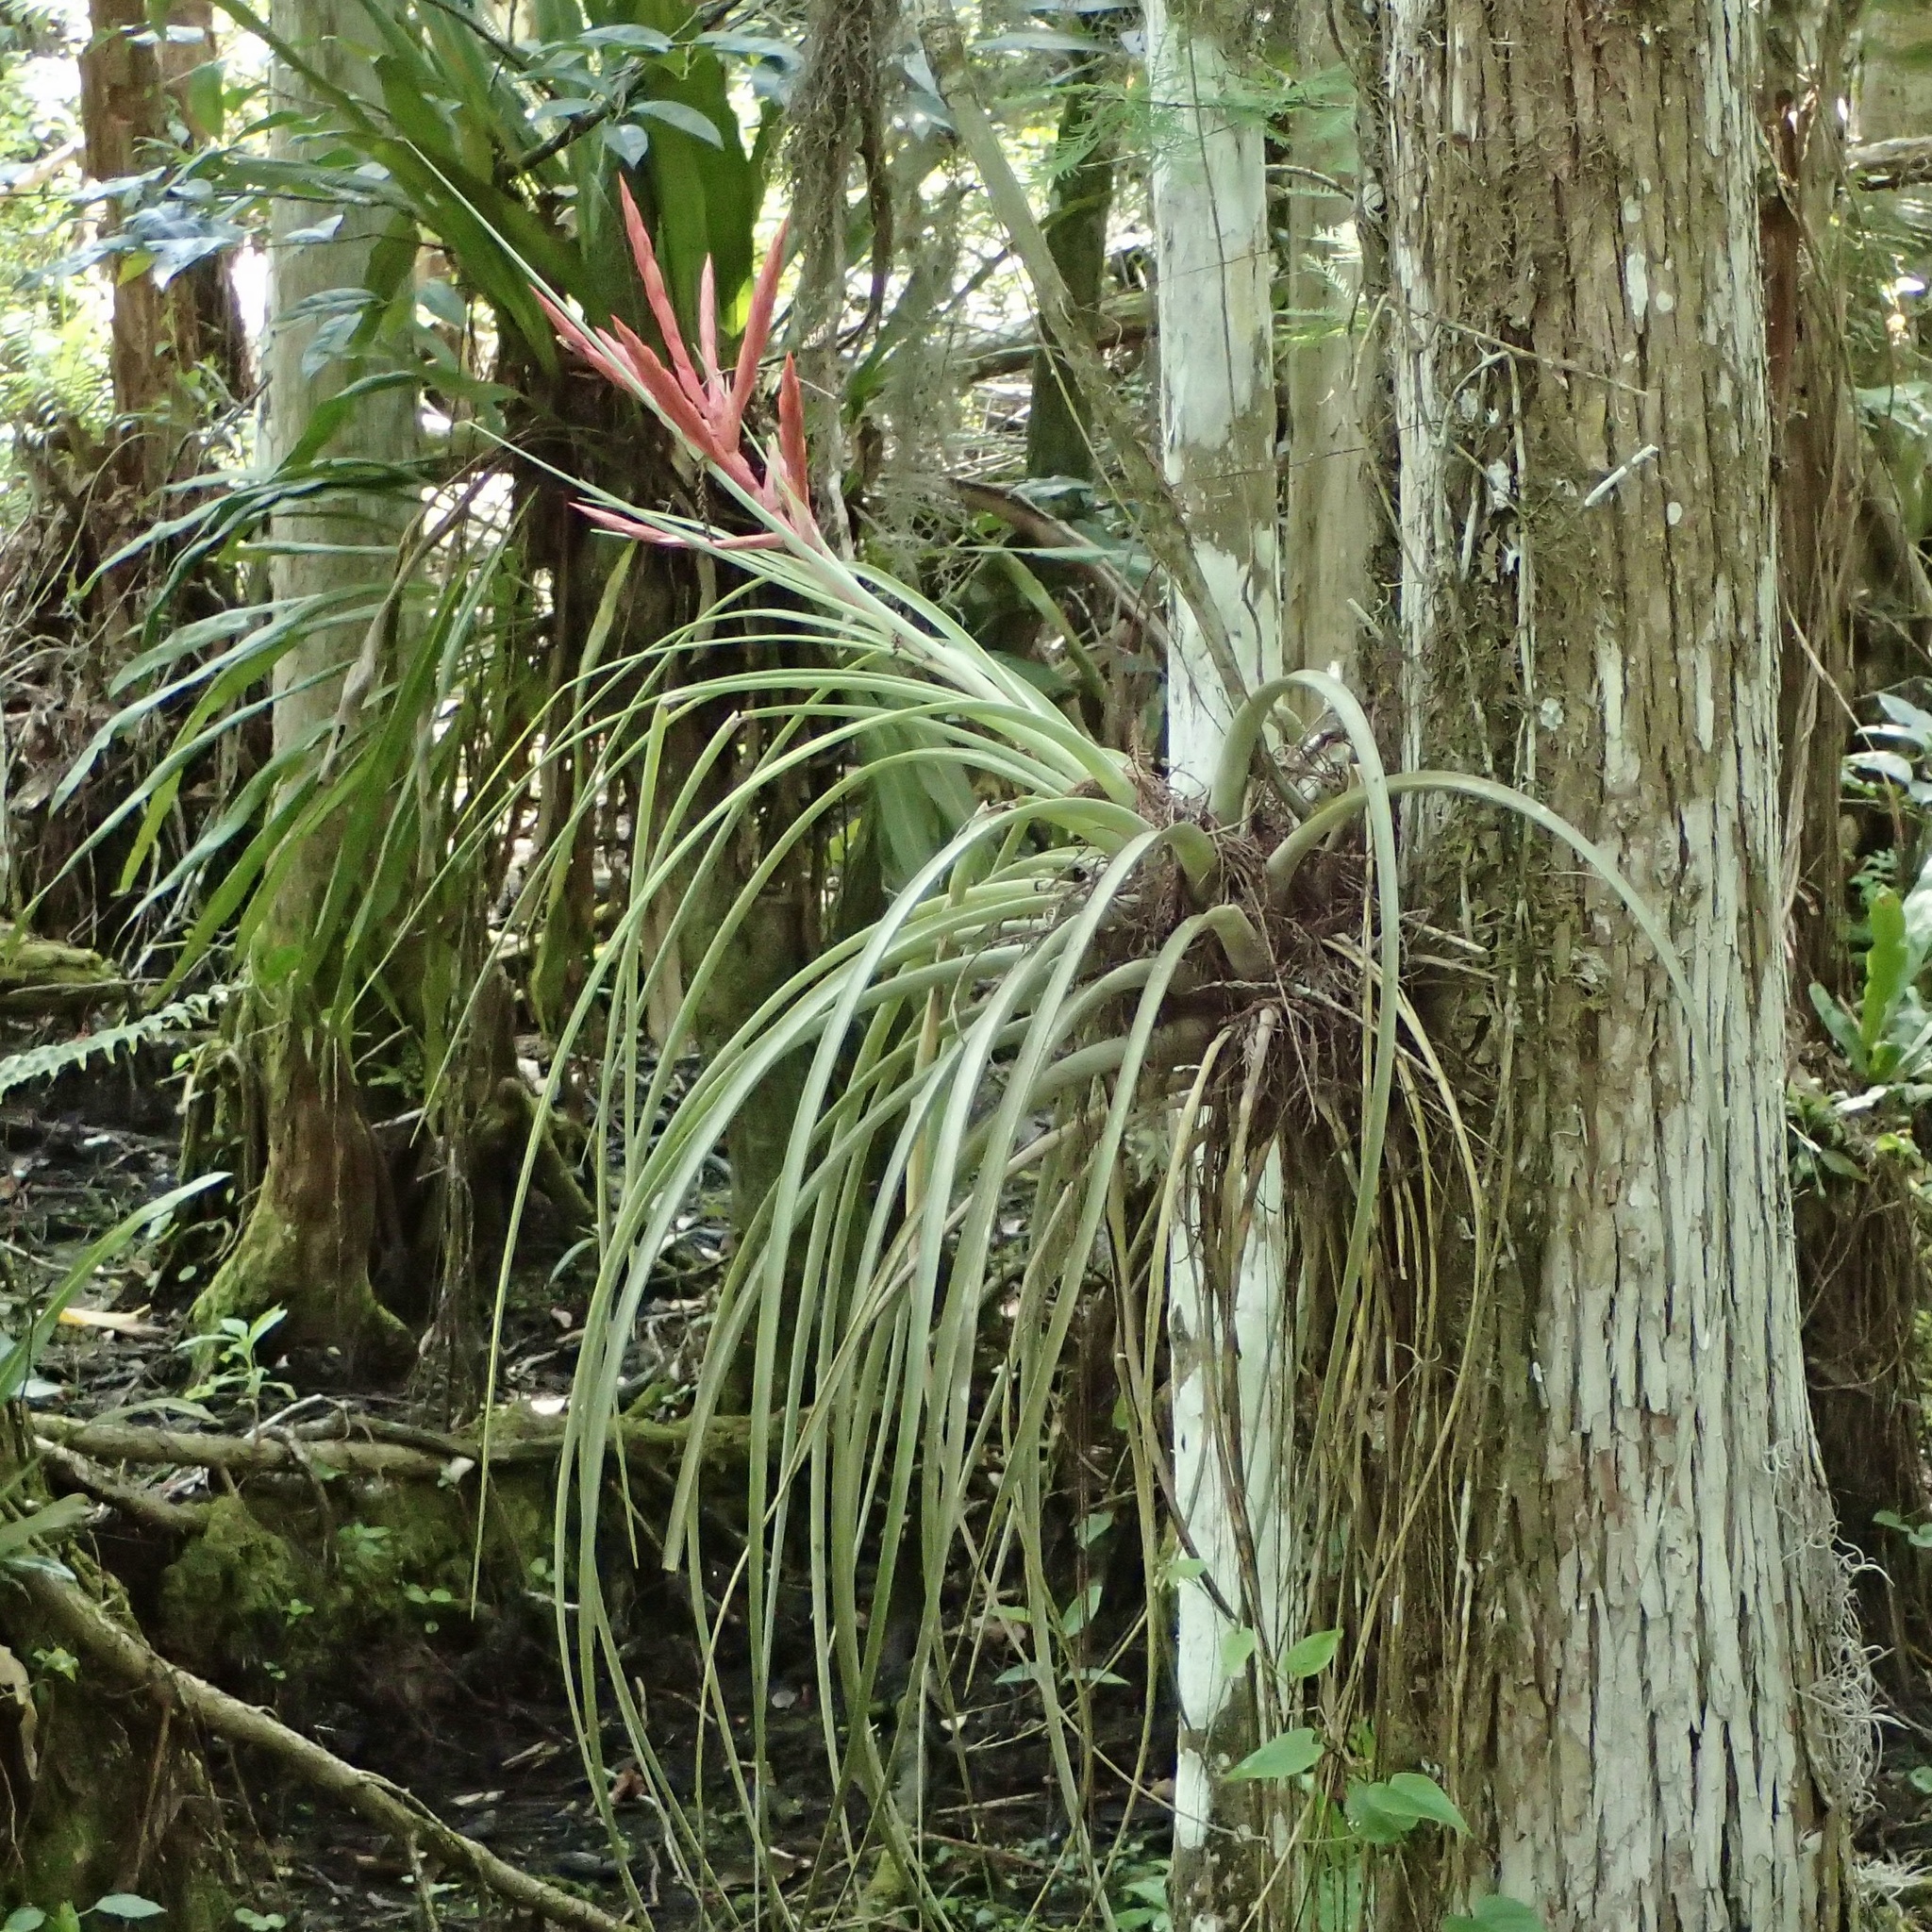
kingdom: Plantae
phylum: Tracheophyta
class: Liliopsida
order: Poales
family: Bromeliaceae
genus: Tillandsia
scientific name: Tillandsia fasciculata
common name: Giant airplant
